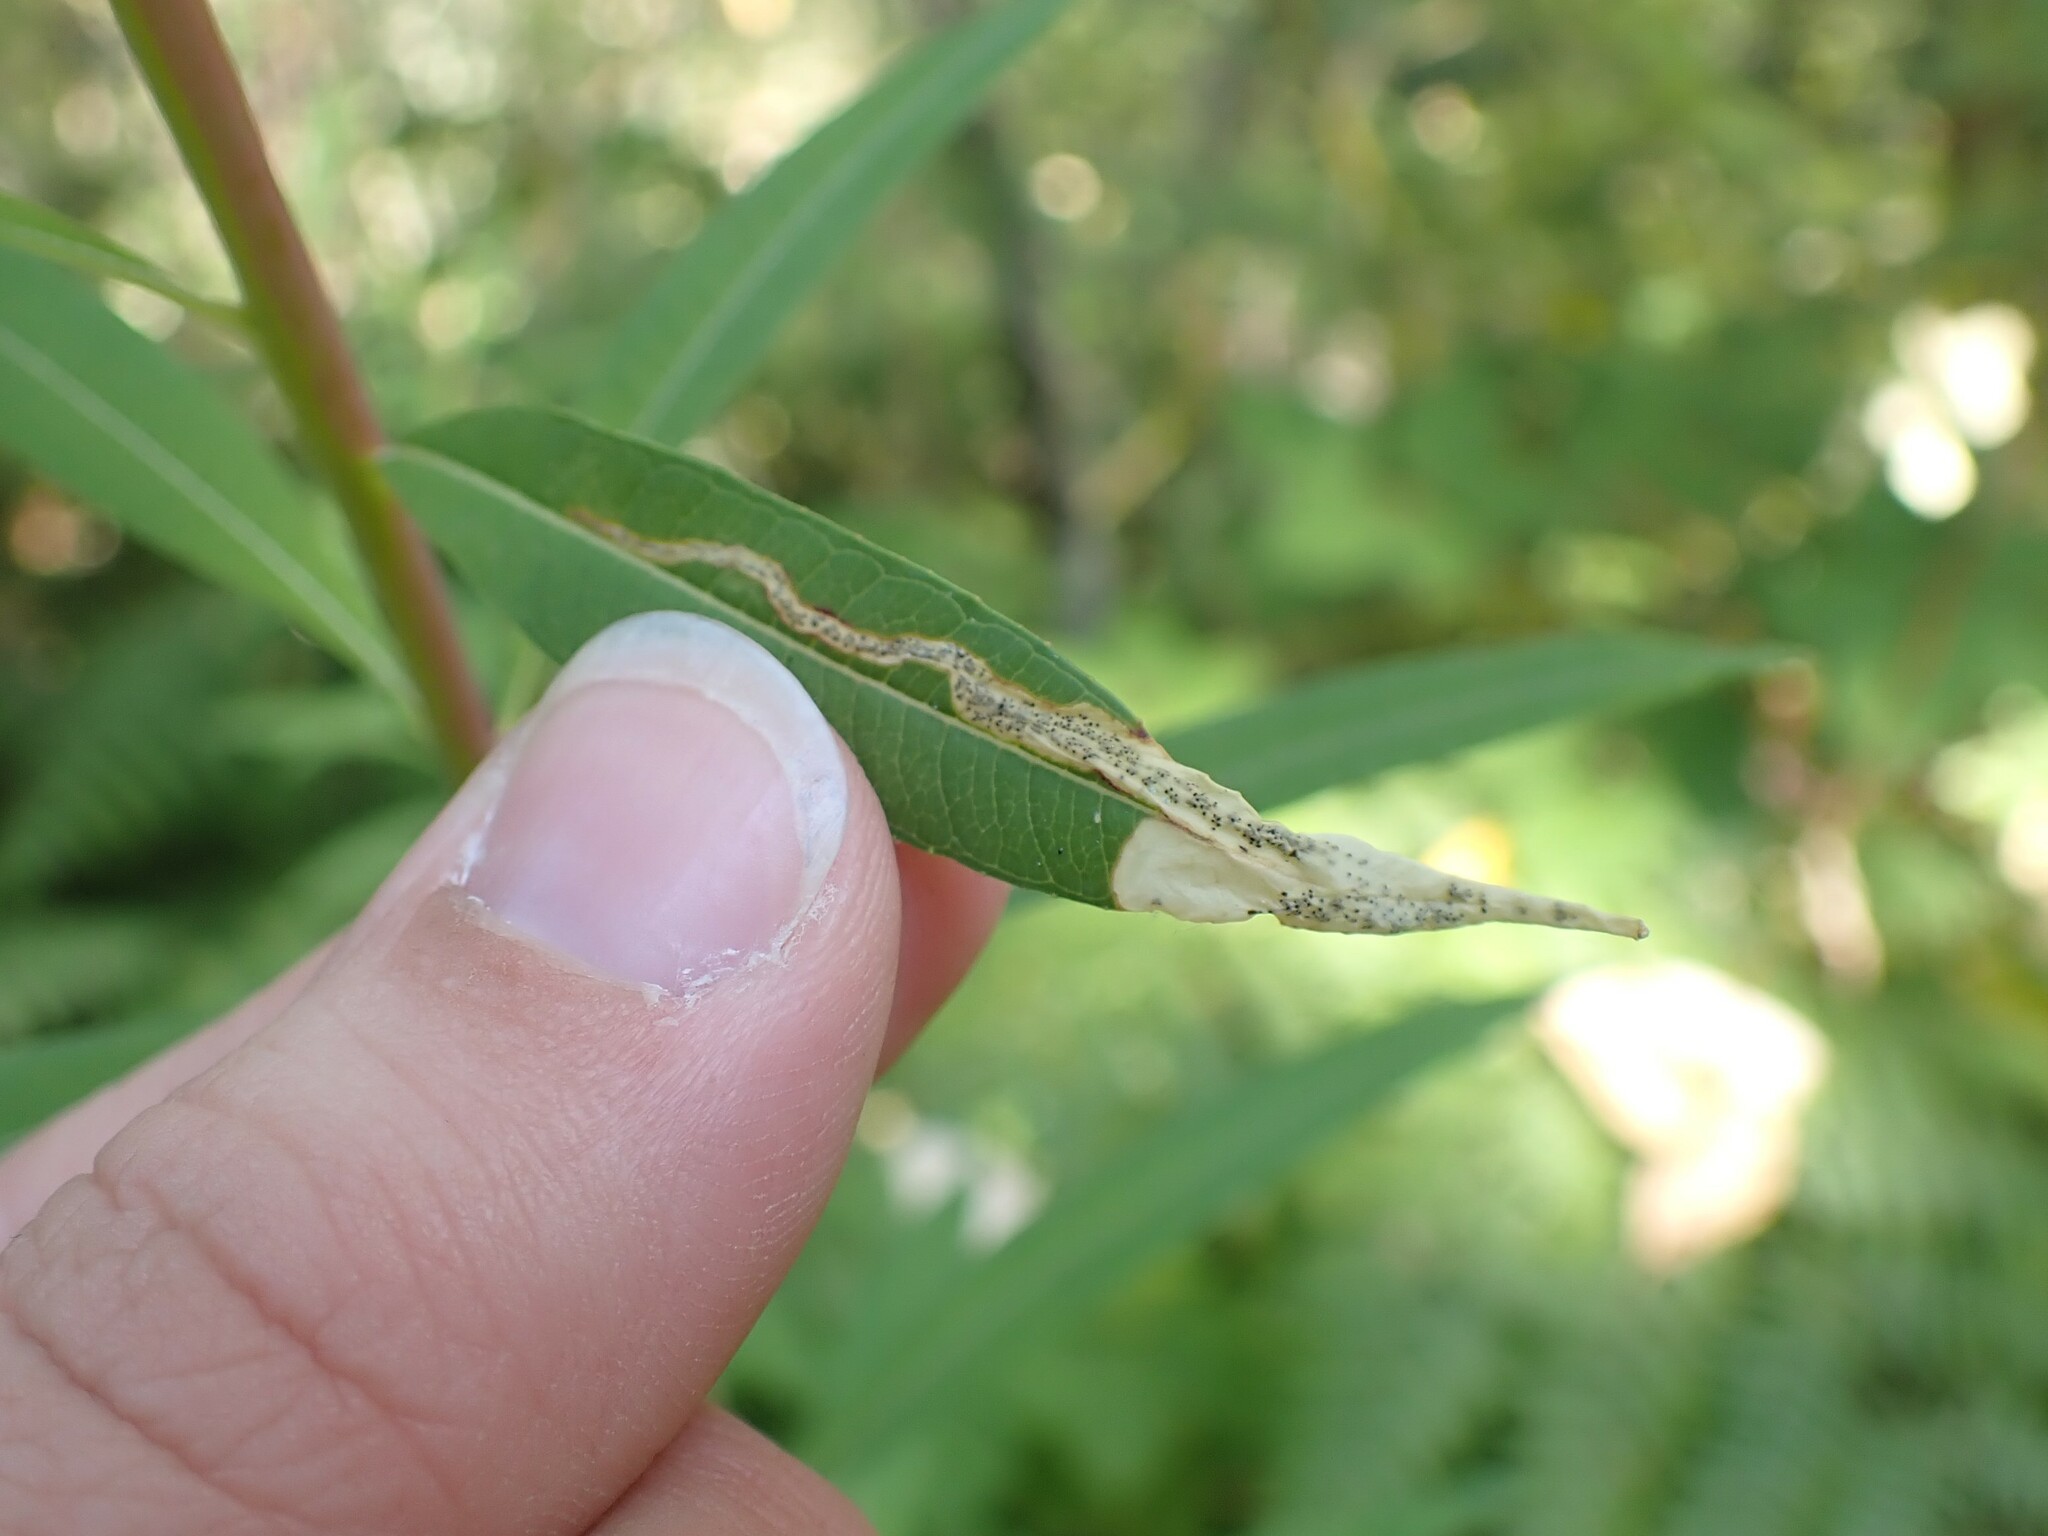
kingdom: Animalia
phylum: Arthropoda
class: Insecta
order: Lepidoptera
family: Momphidae
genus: Mompha
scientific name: Mompha raschkiella
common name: Little cosmet
